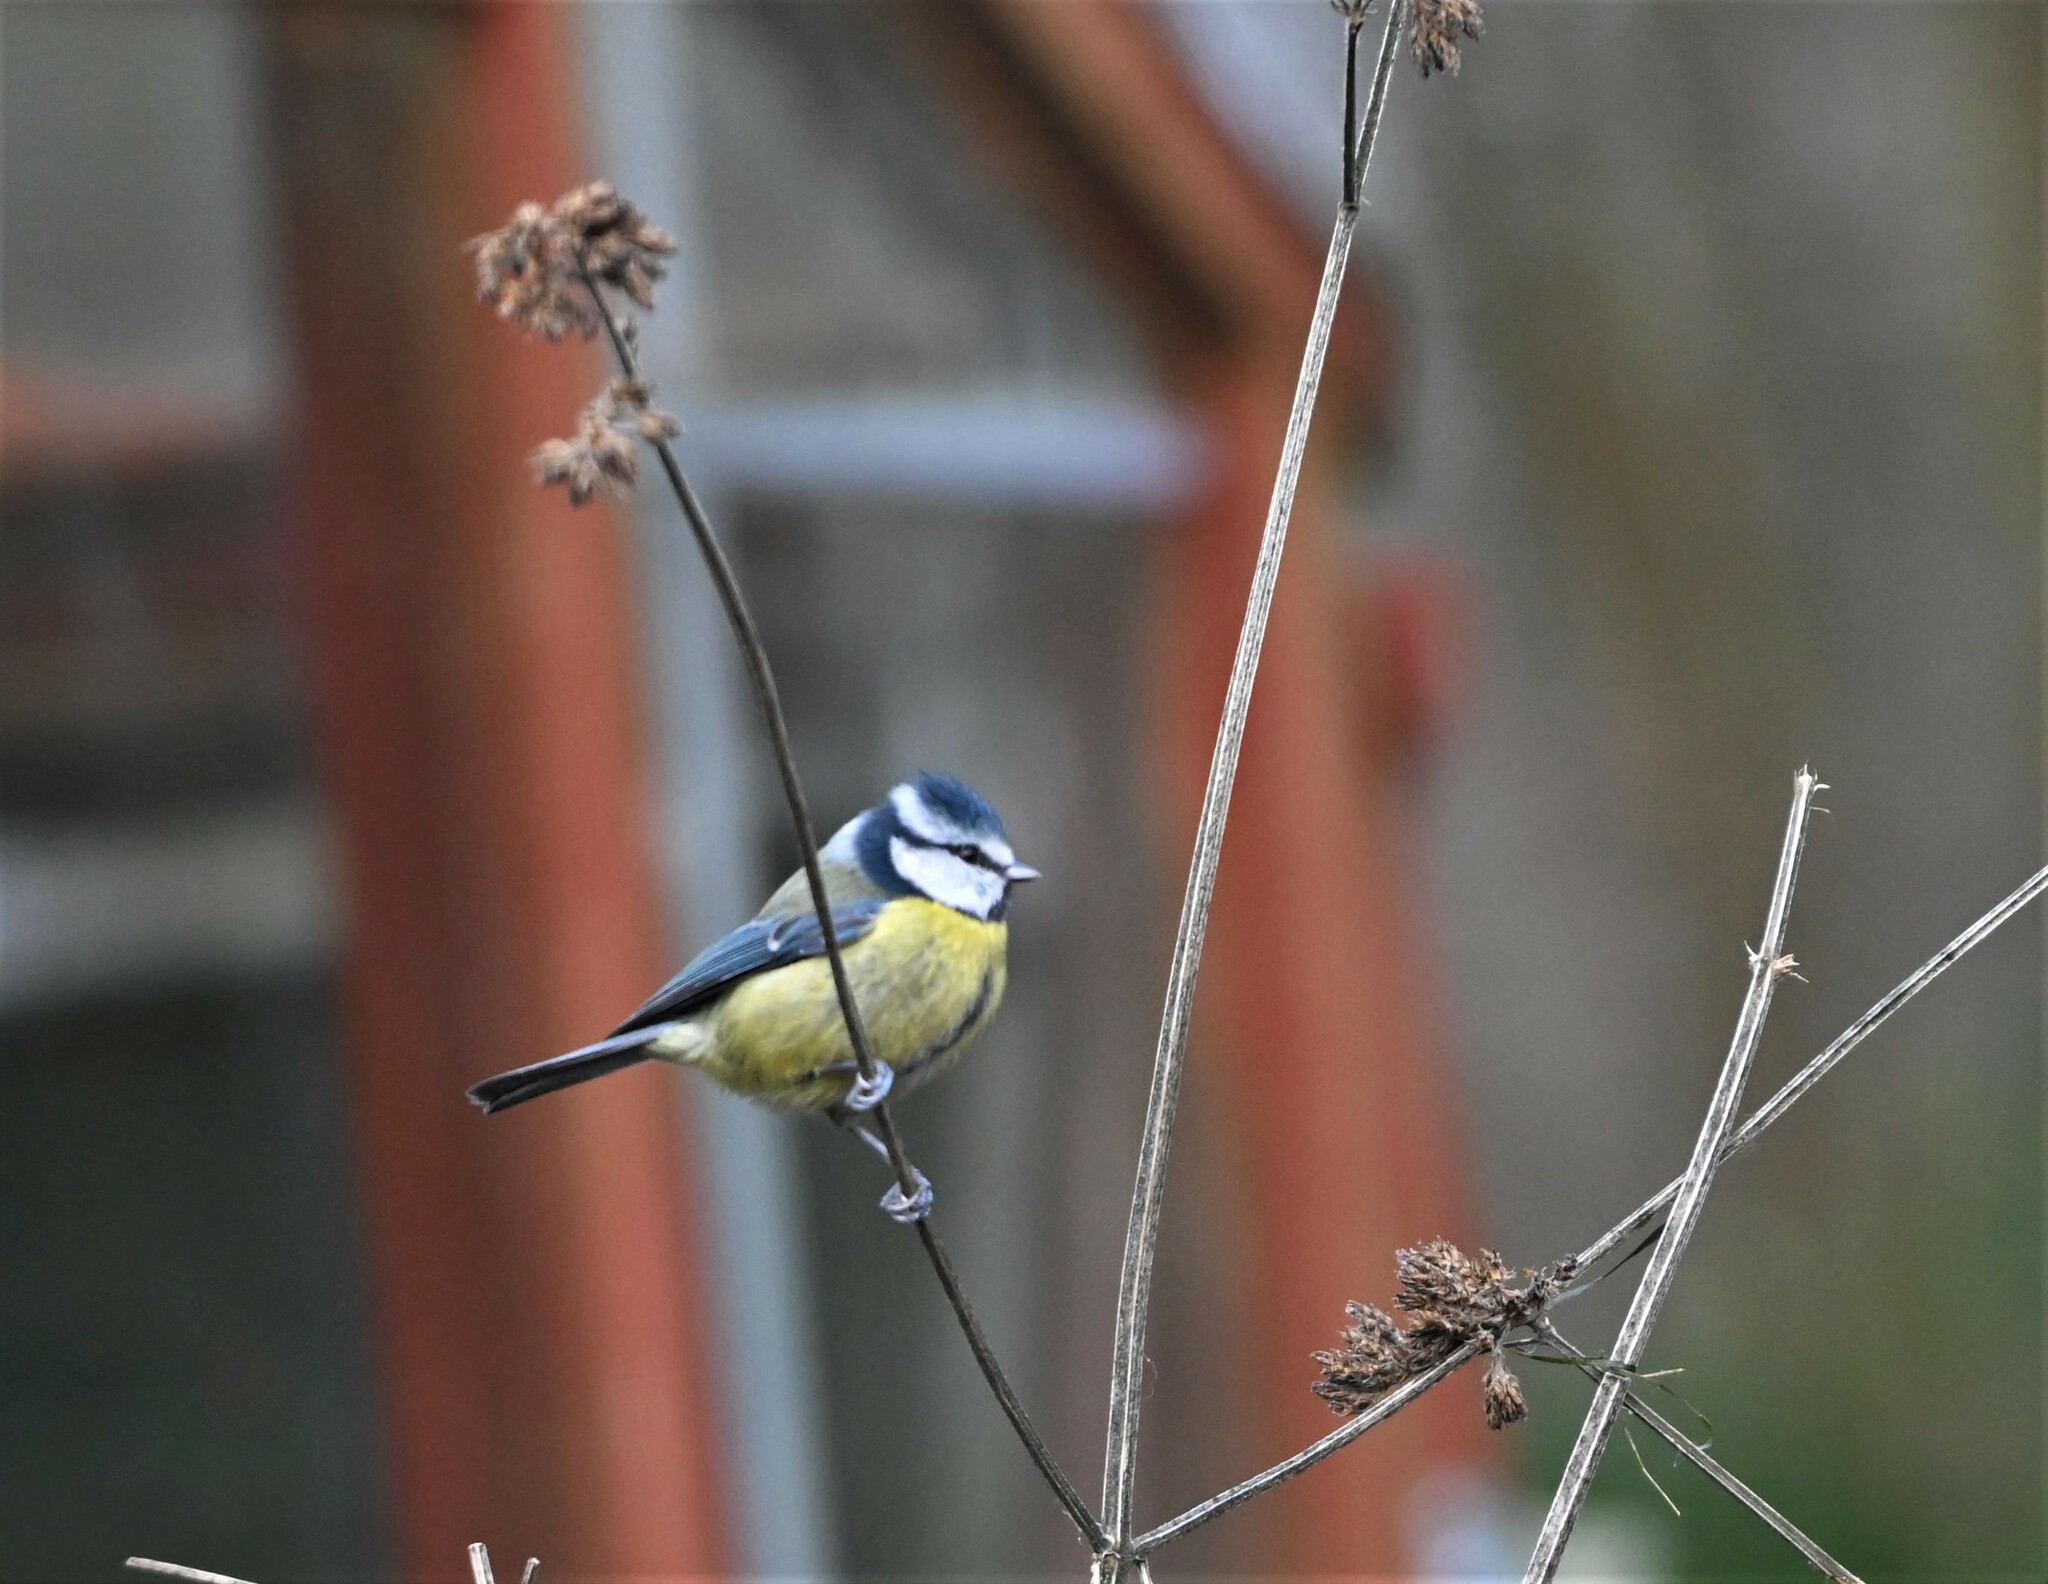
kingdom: Animalia
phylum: Chordata
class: Aves
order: Passeriformes
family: Paridae
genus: Cyanistes
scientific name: Cyanistes caeruleus
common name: Eurasian blue tit
